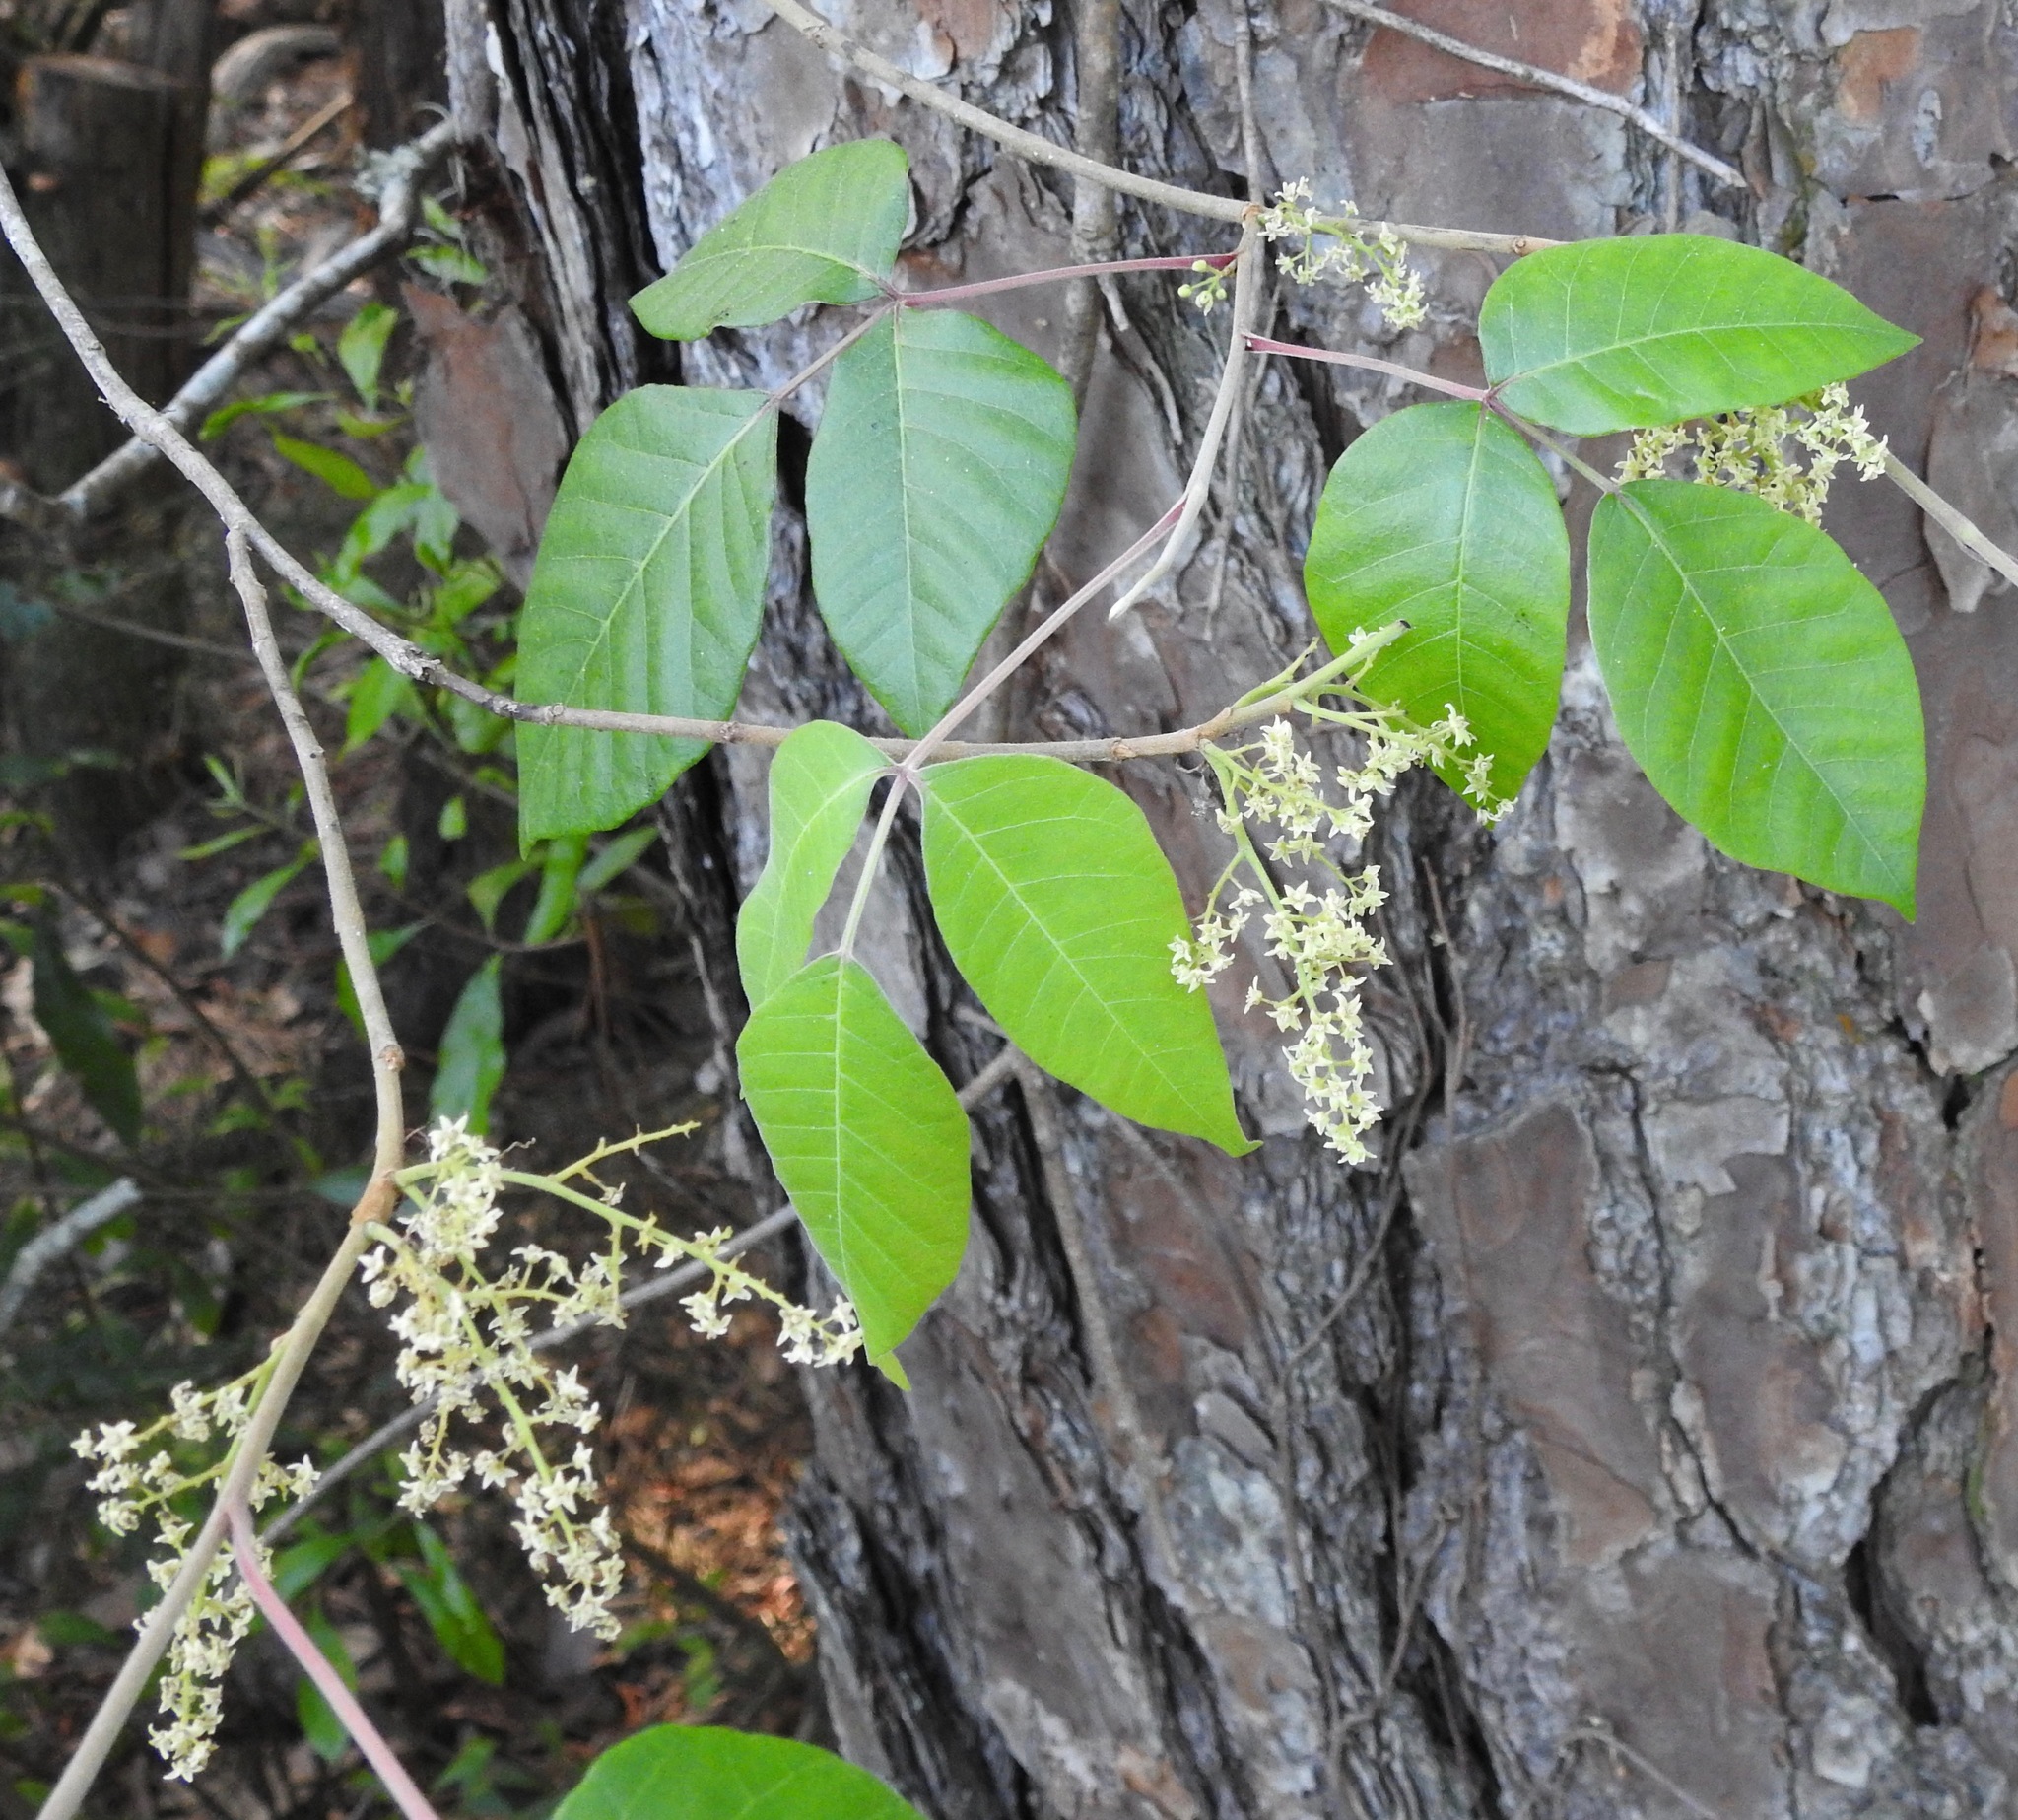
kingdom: Plantae
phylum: Tracheophyta
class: Magnoliopsida
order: Sapindales
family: Anacardiaceae
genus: Toxicodendron
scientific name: Toxicodendron radicans
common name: Poison ivy
